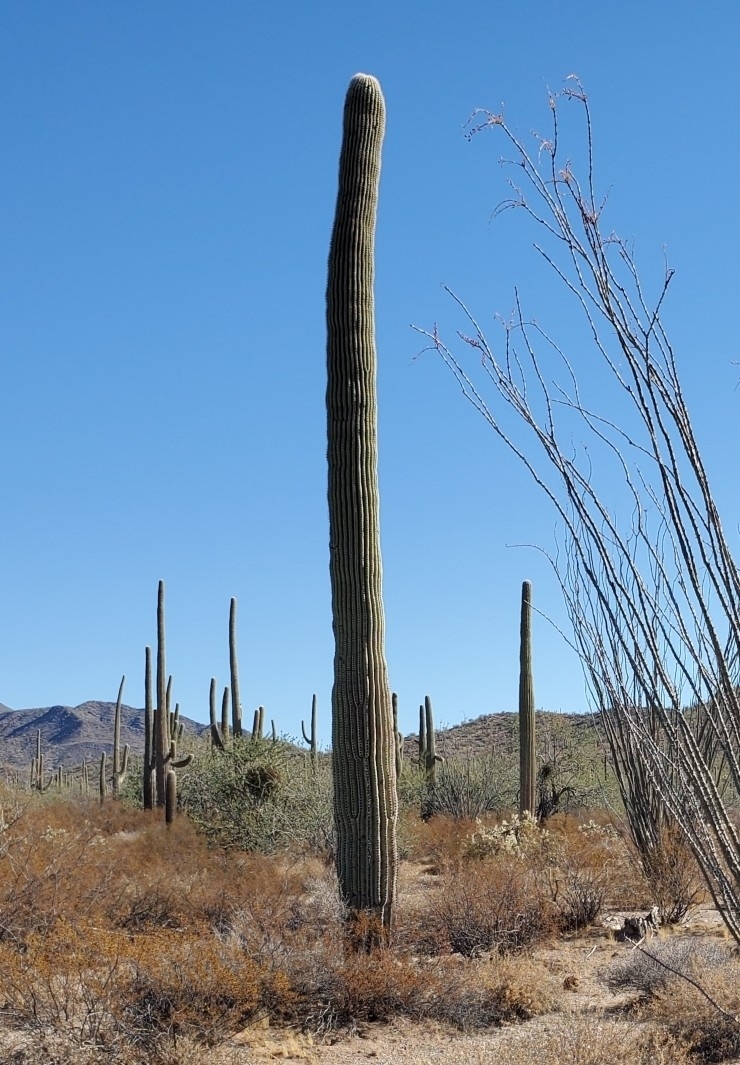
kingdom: Plantae
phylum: Tracheophyta
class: Magnoliopsida
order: Caryophyllales
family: Cactaceae
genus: Carnegiea
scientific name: Carnegiea gigantea
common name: Saguaro
